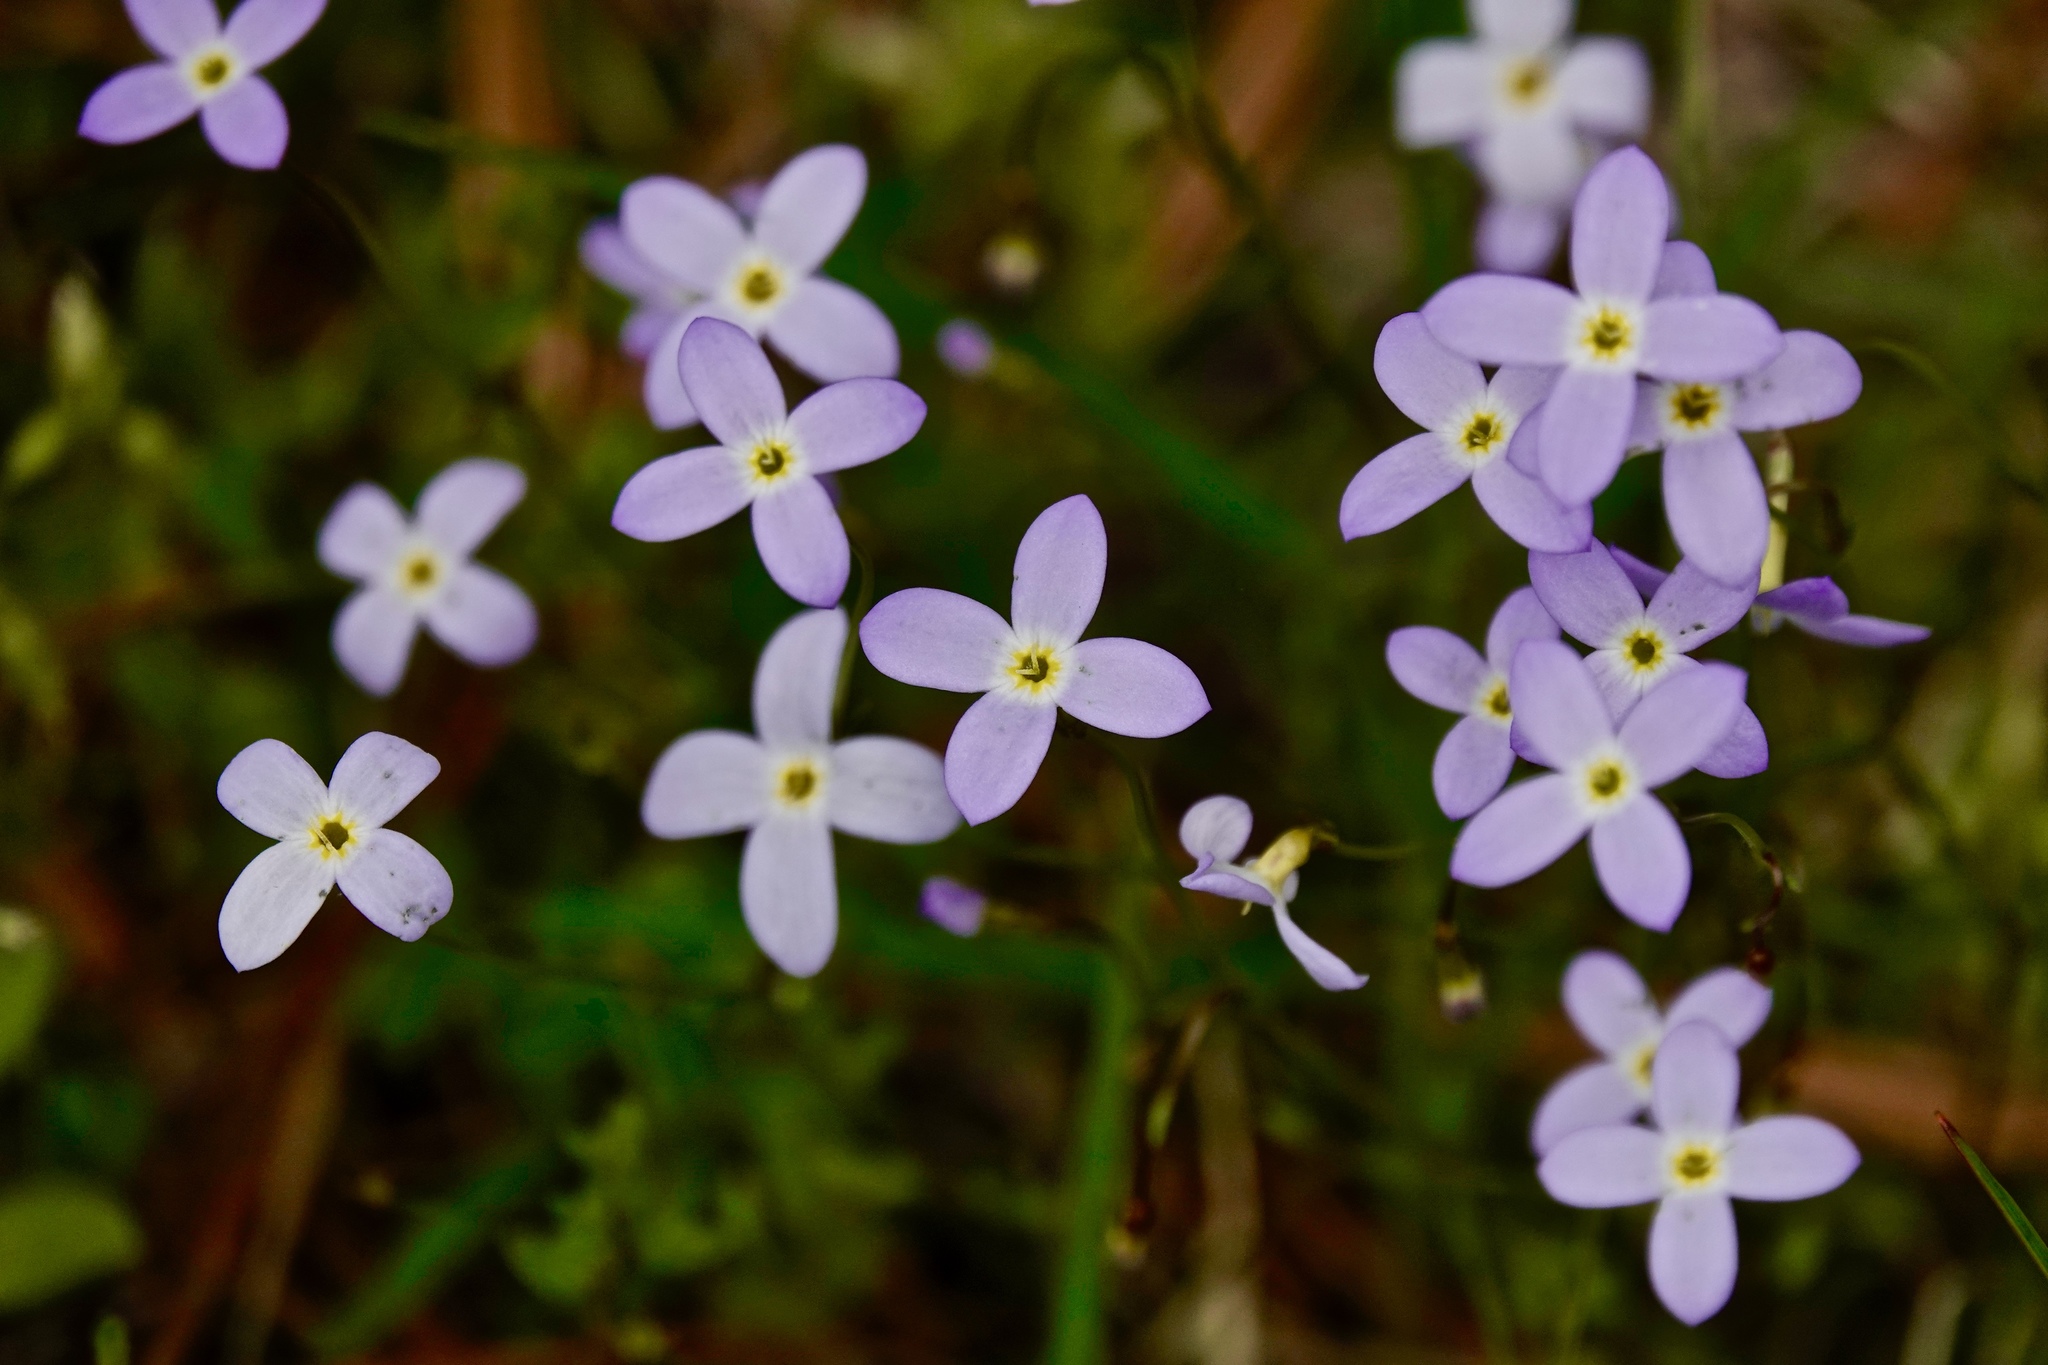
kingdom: Plantae
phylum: Tracheophyta
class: Magnoliopsida
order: Gentianales
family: Rubiaceae
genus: Houstonia
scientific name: Houstonia caerulea
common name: Bluets
